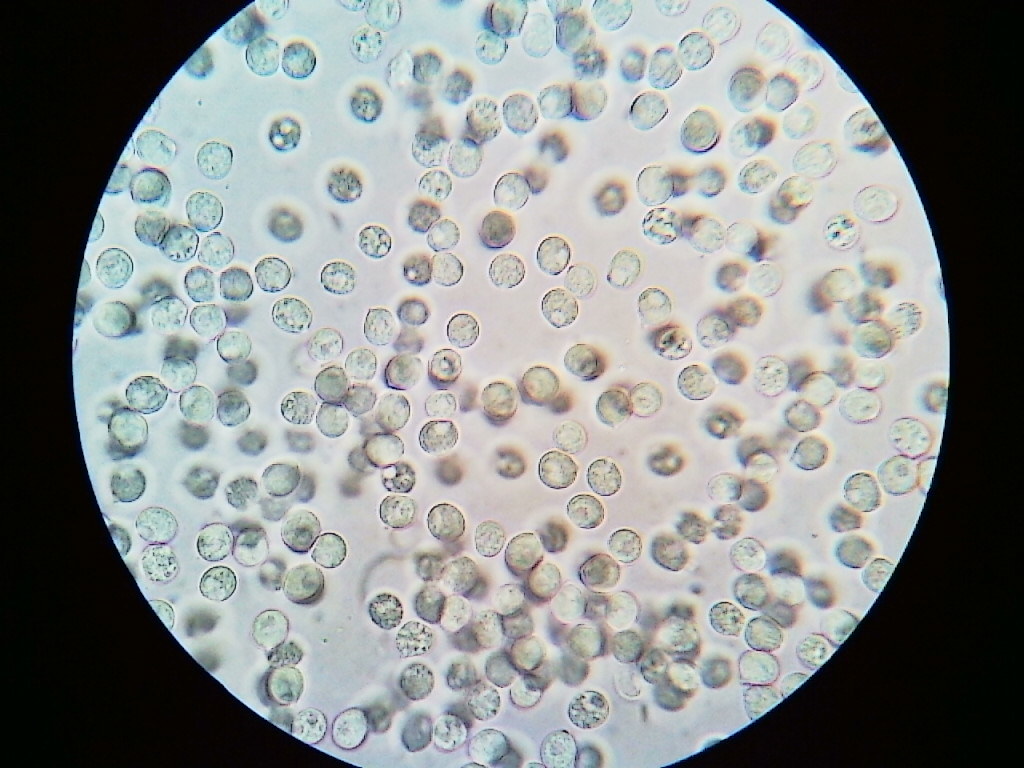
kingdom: Fungi
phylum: Basidiomycota
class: Agaricomycetes
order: Agaricales
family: Radulomycetaceae
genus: Radulomyces
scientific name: Radulomyces copelandii
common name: Asian beauty
